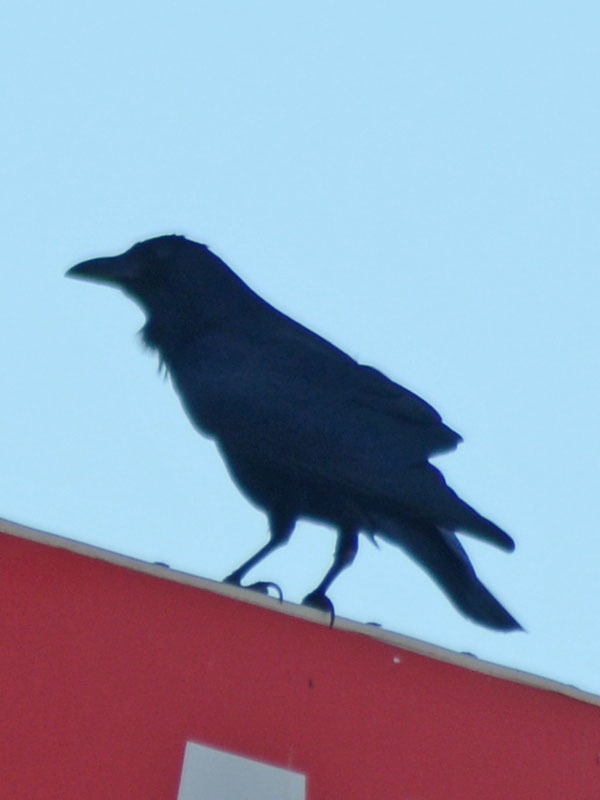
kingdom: Animalia
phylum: Chordata
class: Aves
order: Passeriformes
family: Corvidae
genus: Corvus
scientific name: Corvus sinaloae
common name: Sinaloa crow
